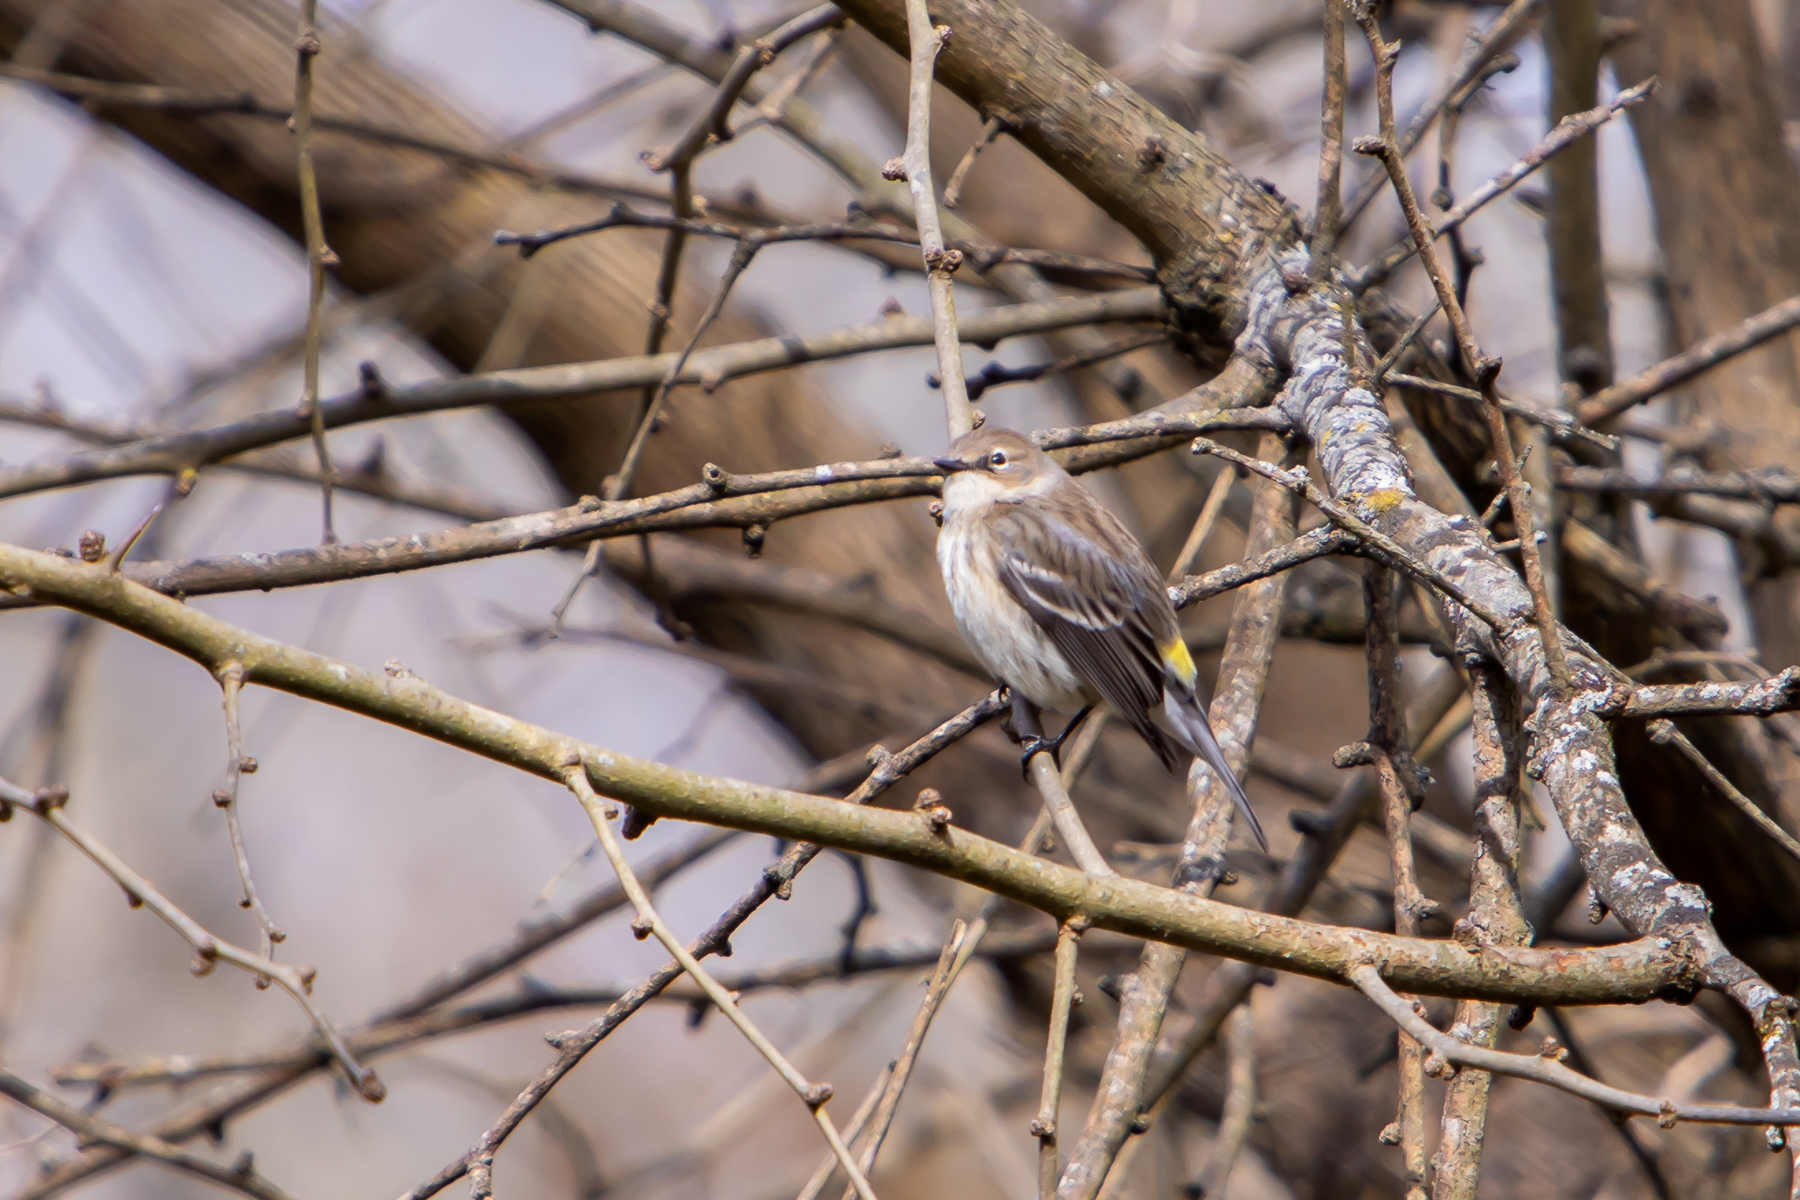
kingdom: Animalia
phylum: Chordata
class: Aves
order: Passeriformes
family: Parulidae
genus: Setophaga
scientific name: Setophaga coronata
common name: Myrtle warbler
